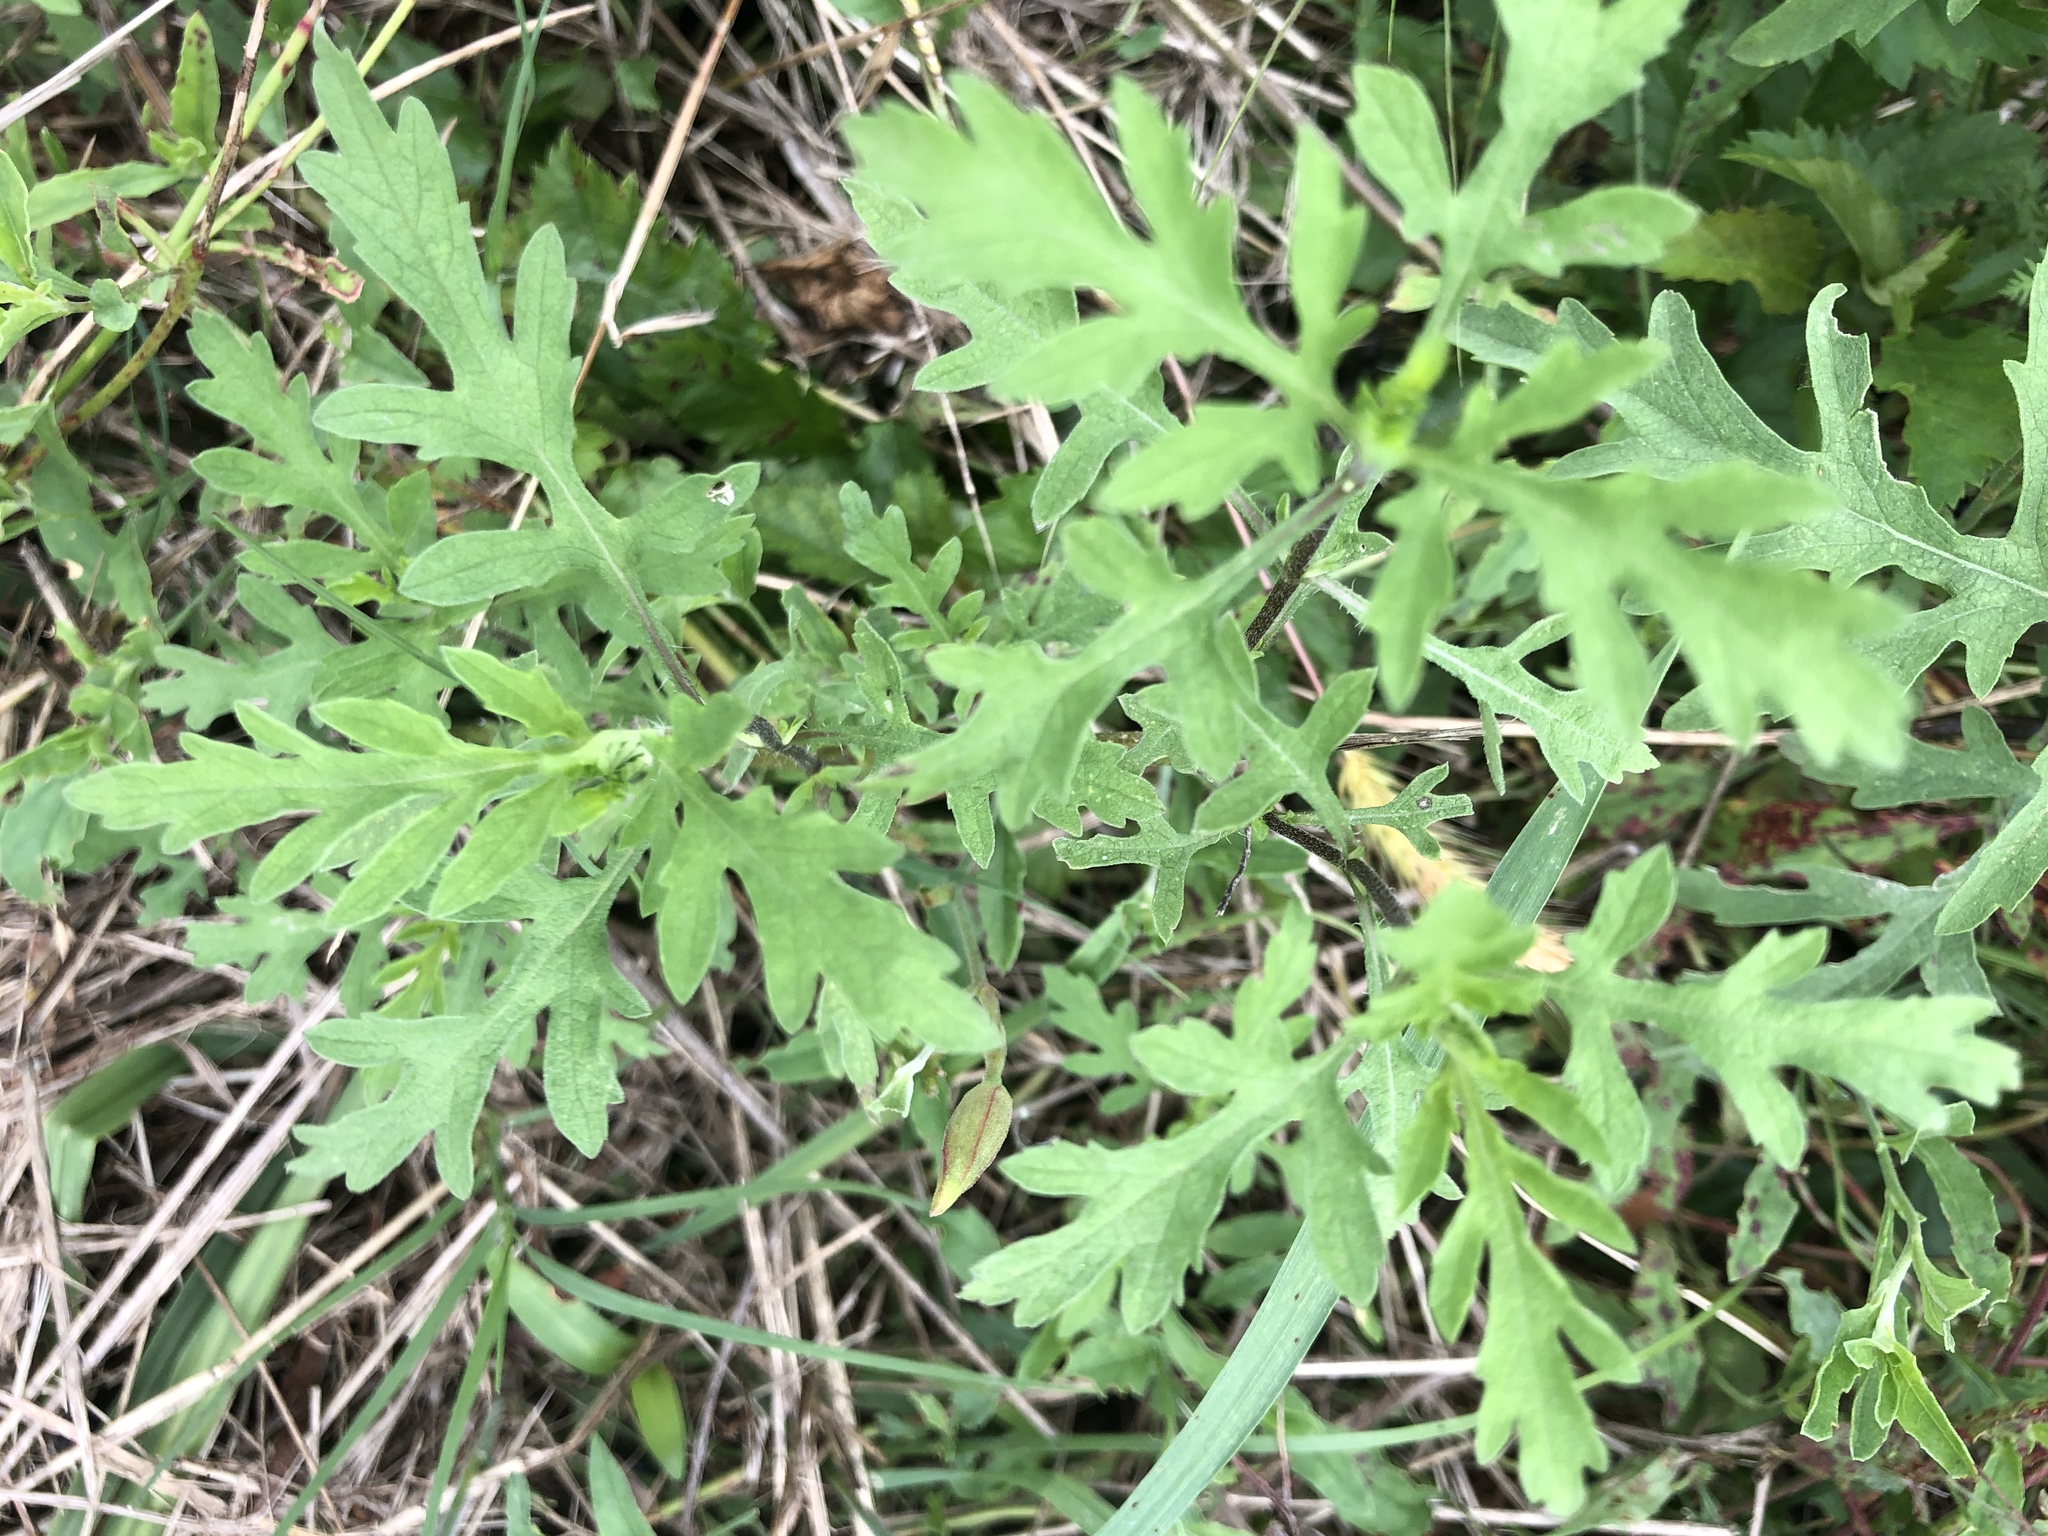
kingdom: Plantae
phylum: Tracheophyta
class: Magnoliopsida
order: Asterales
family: Asteraceae
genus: Ambrosia
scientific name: Ambrosia psilostachya
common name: Perennial ragweed
